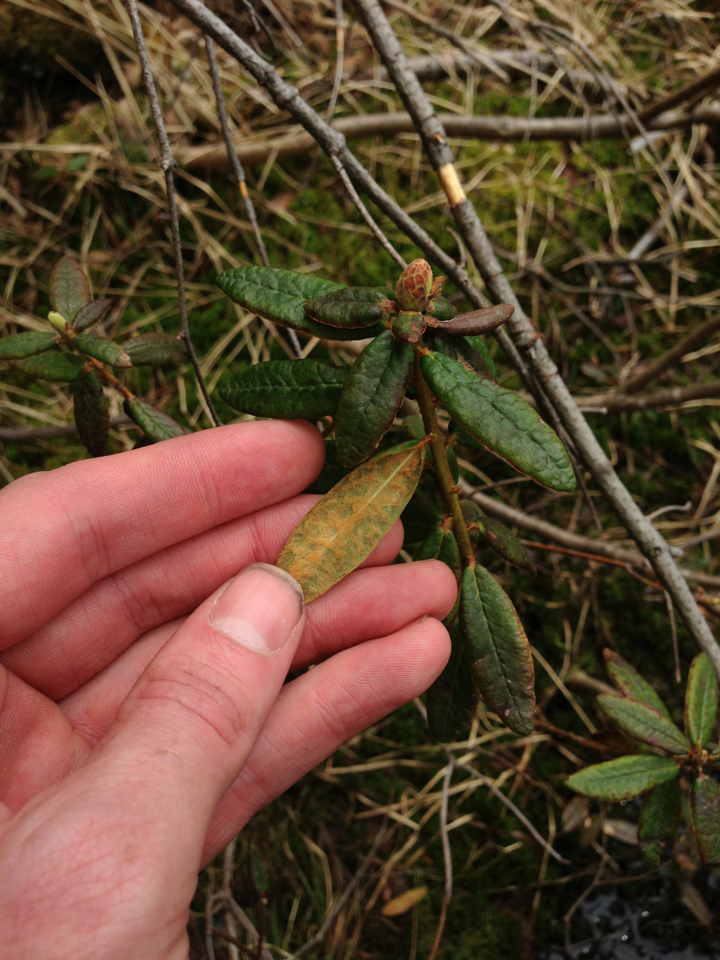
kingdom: Plantae
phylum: Tracheophyta
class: Magnoliopsida
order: Ericales
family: Ericaceae
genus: Rhododendron
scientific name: Rhododendron groenlandicum
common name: Bog labrador tea
